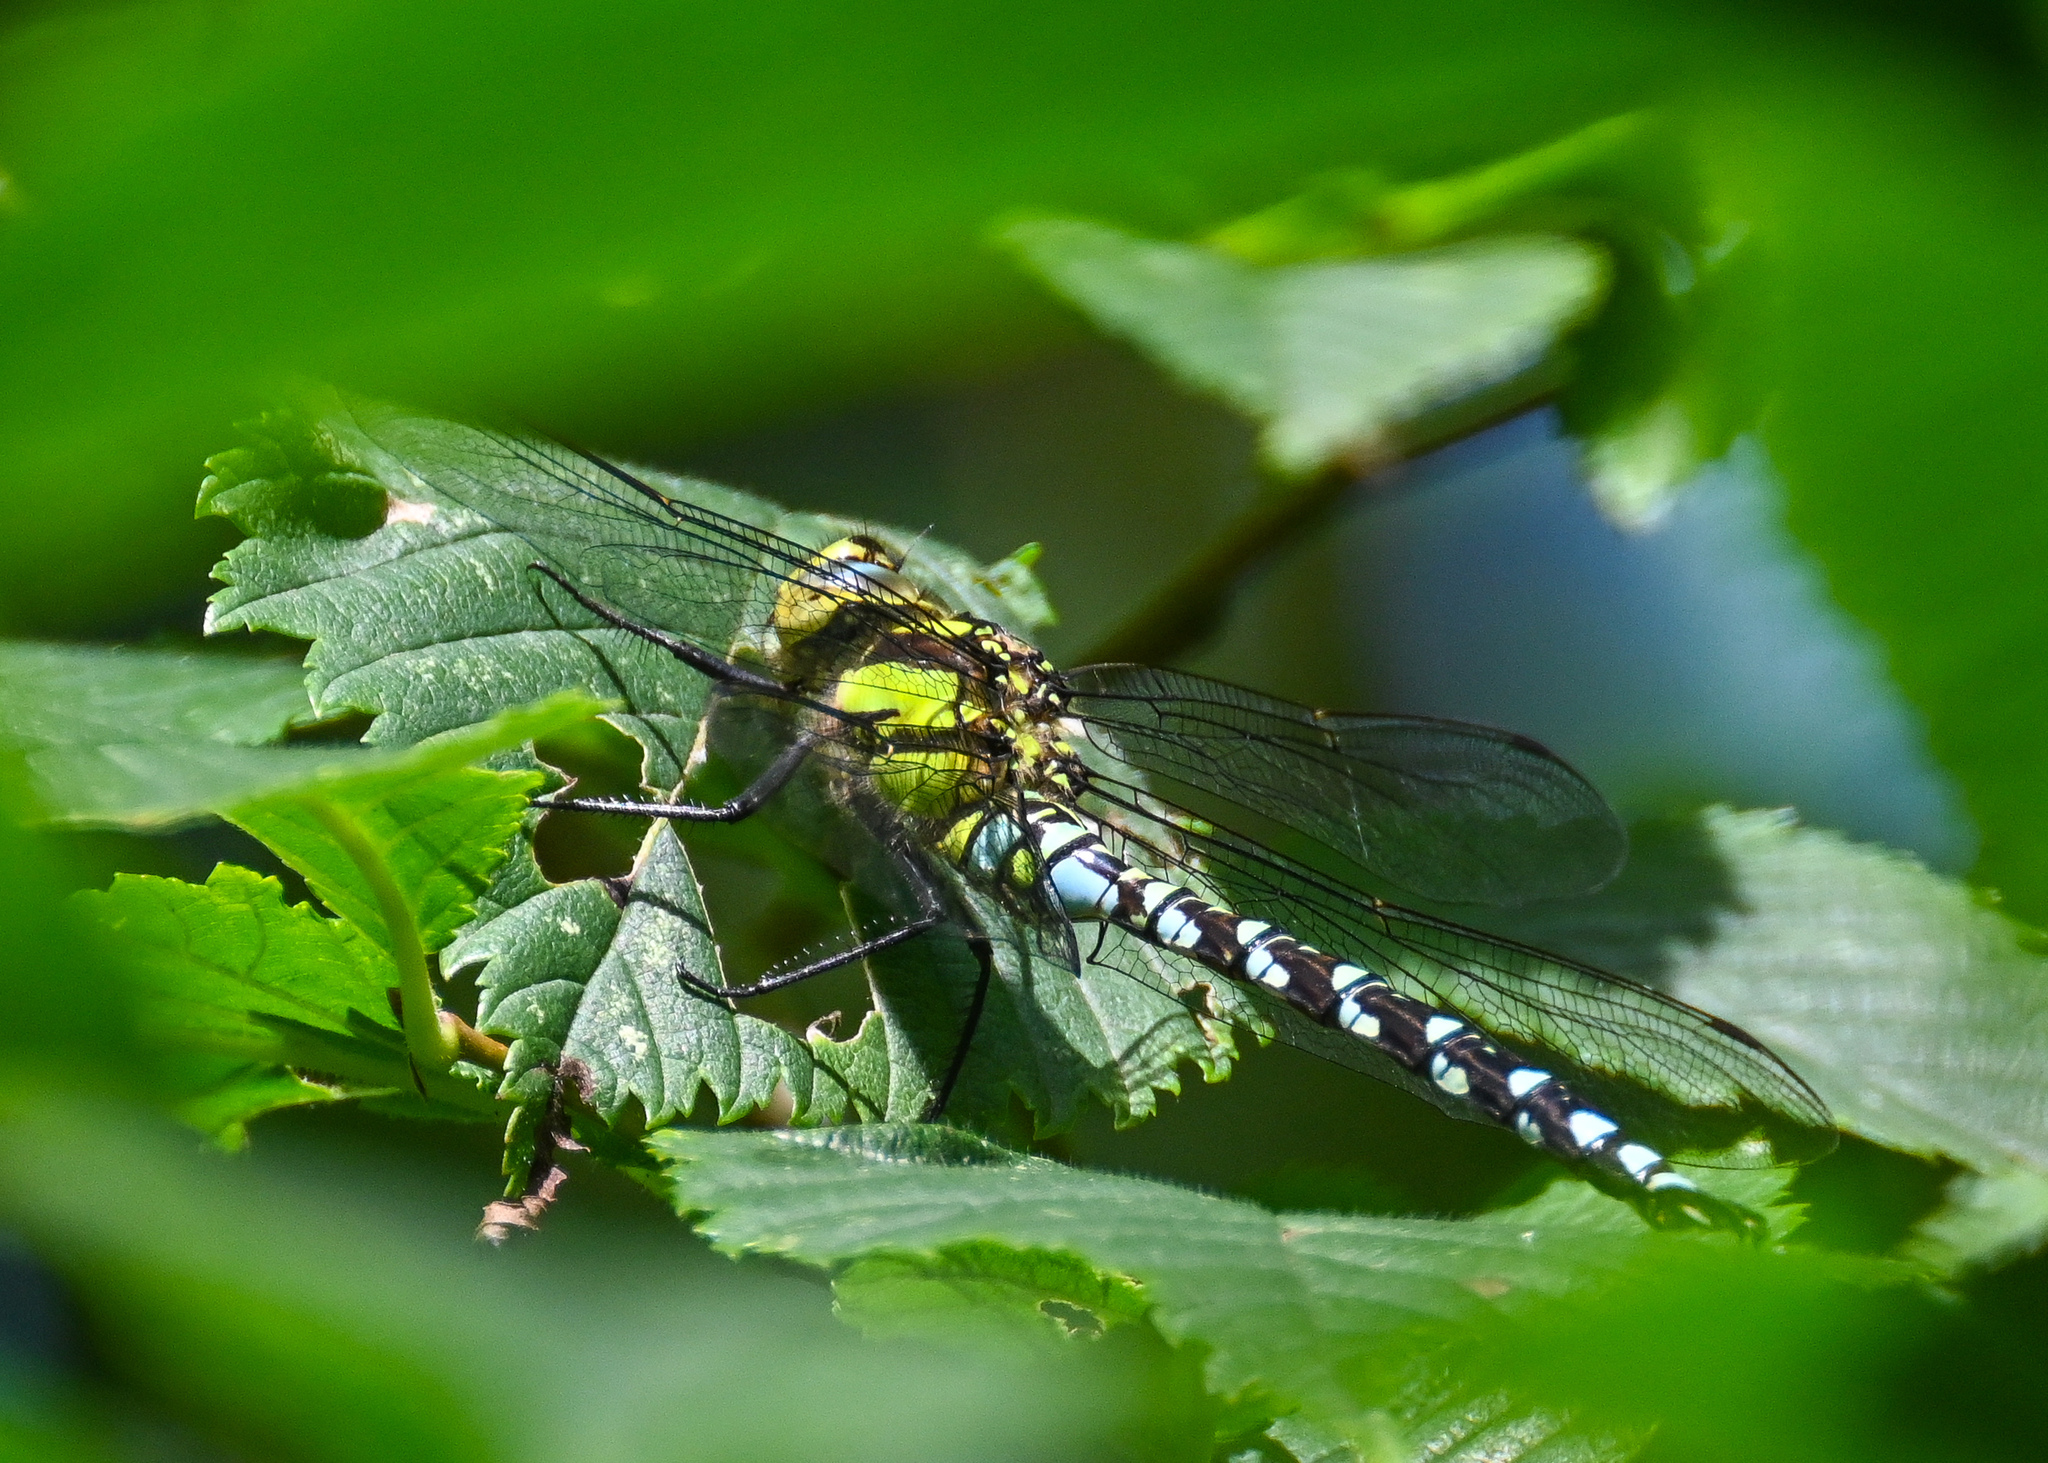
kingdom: Animalia
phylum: Arthropoda
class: Insecta
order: Odonata
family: Aeshnidae
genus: Aeshna
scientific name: Aeshna cyanea
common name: Southern hawker
